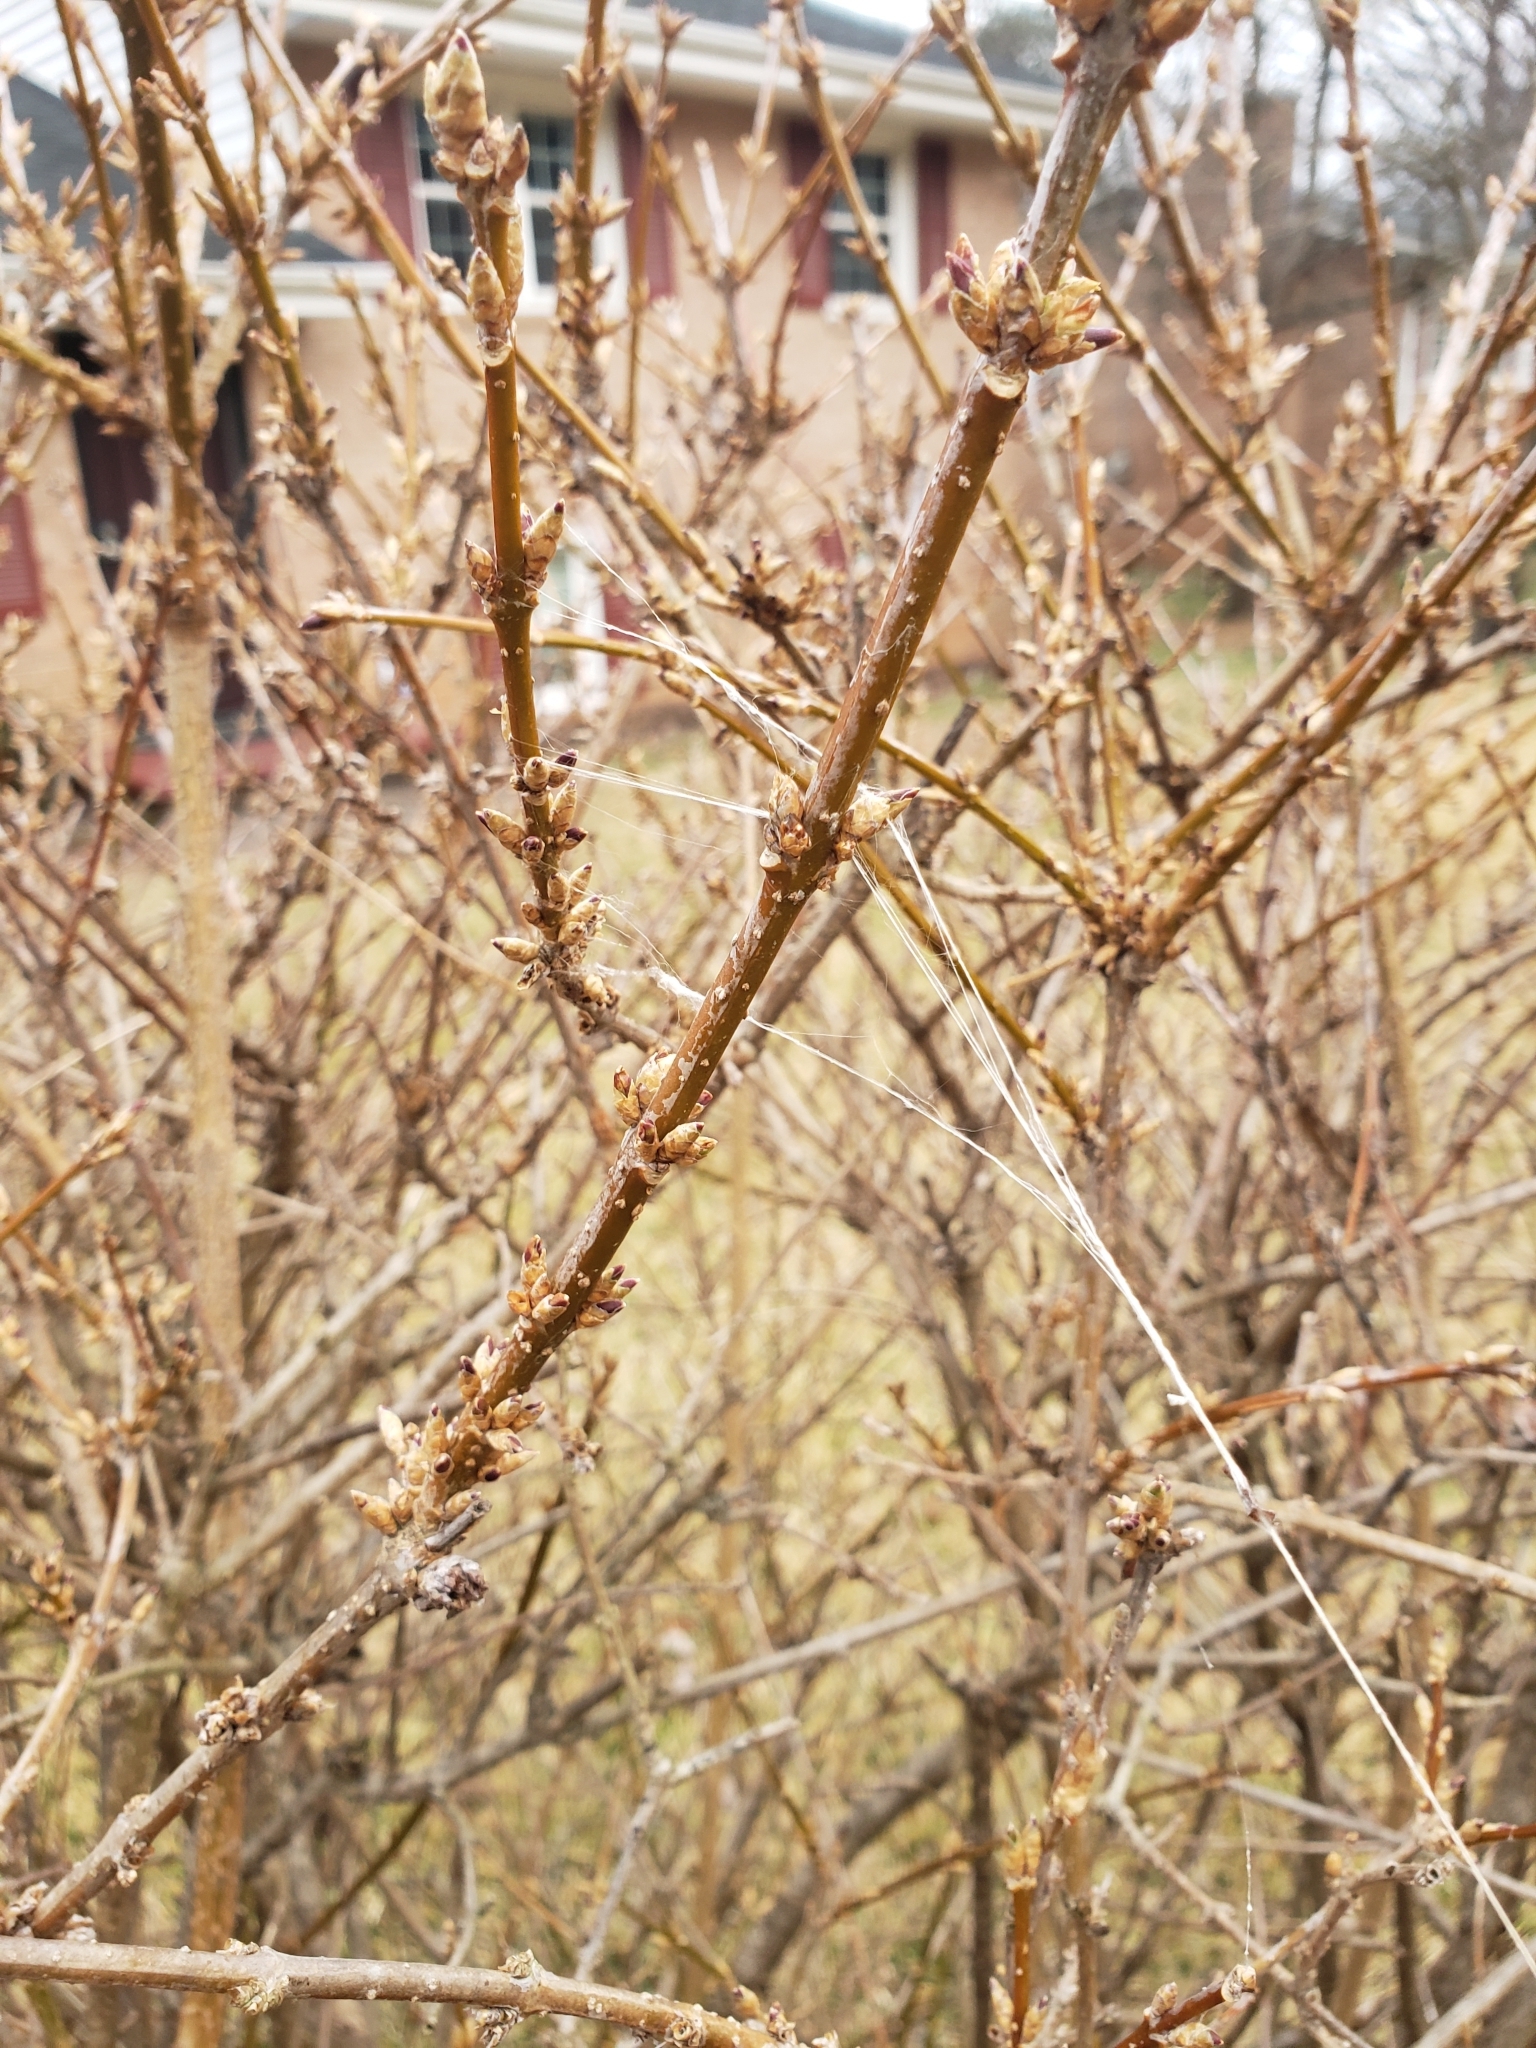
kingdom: Animalia
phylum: Arthropoda
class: Arachnida
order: Araneae
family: Araneidae
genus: Mecynogea
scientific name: Mecynogea lemniscata
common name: Orb weavers
